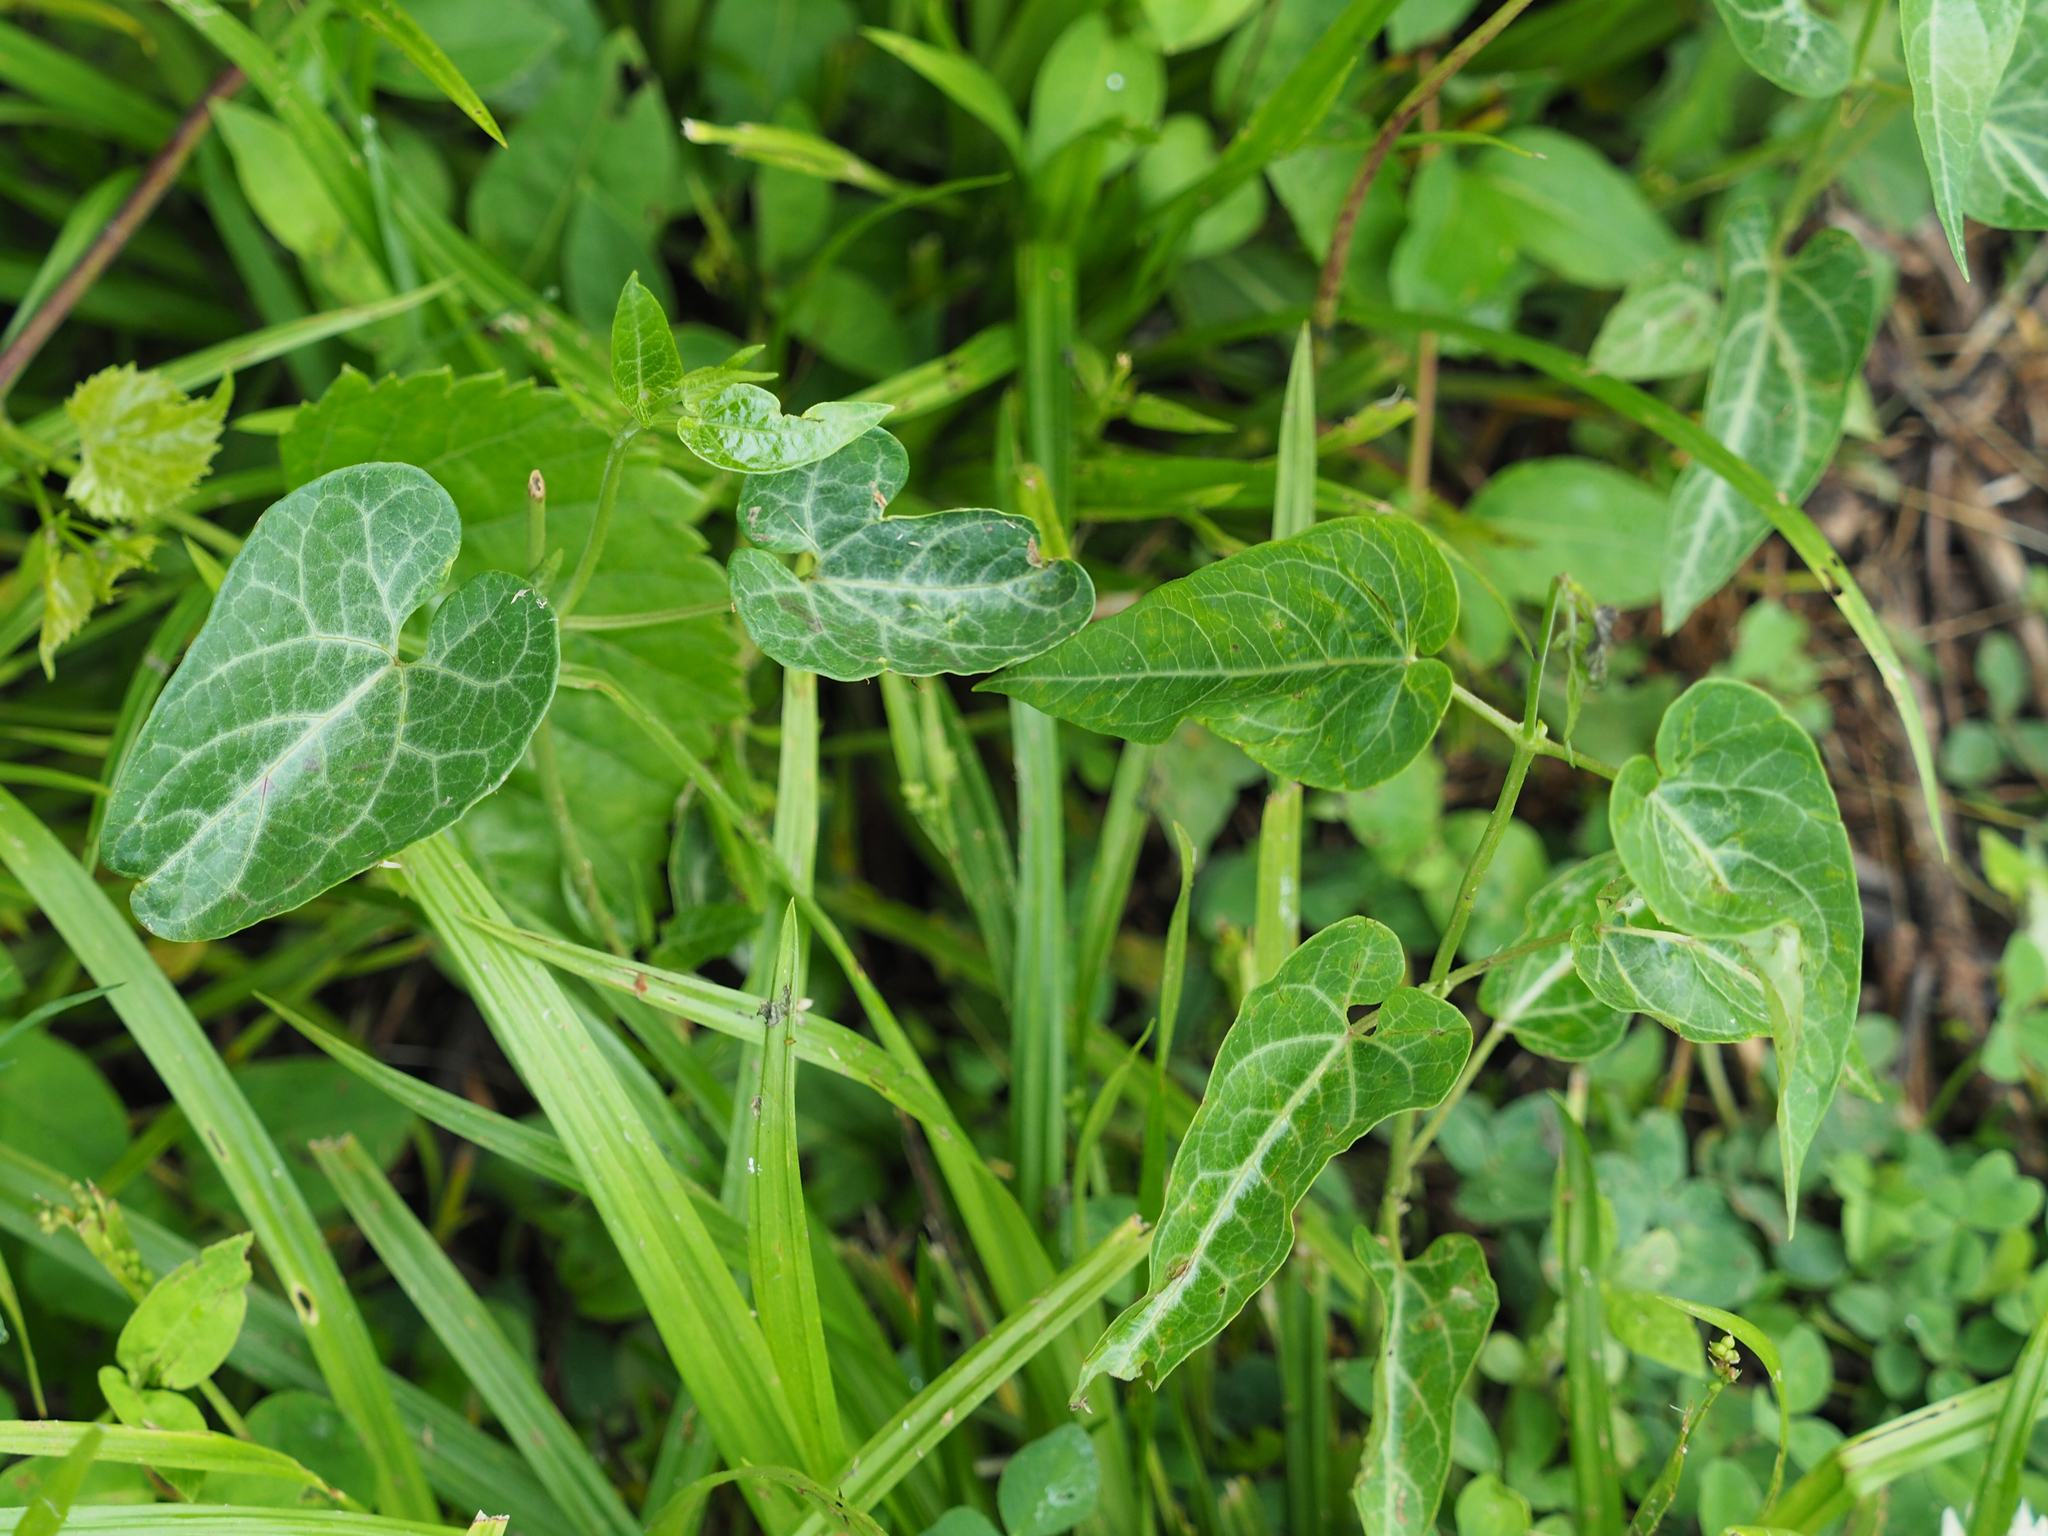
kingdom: Plantae
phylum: Tracheophyta
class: Magnoliopsida
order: Gentianales
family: Apocynaceae
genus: Cynanchum
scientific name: Cynanchum laeve
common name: Sandvine
